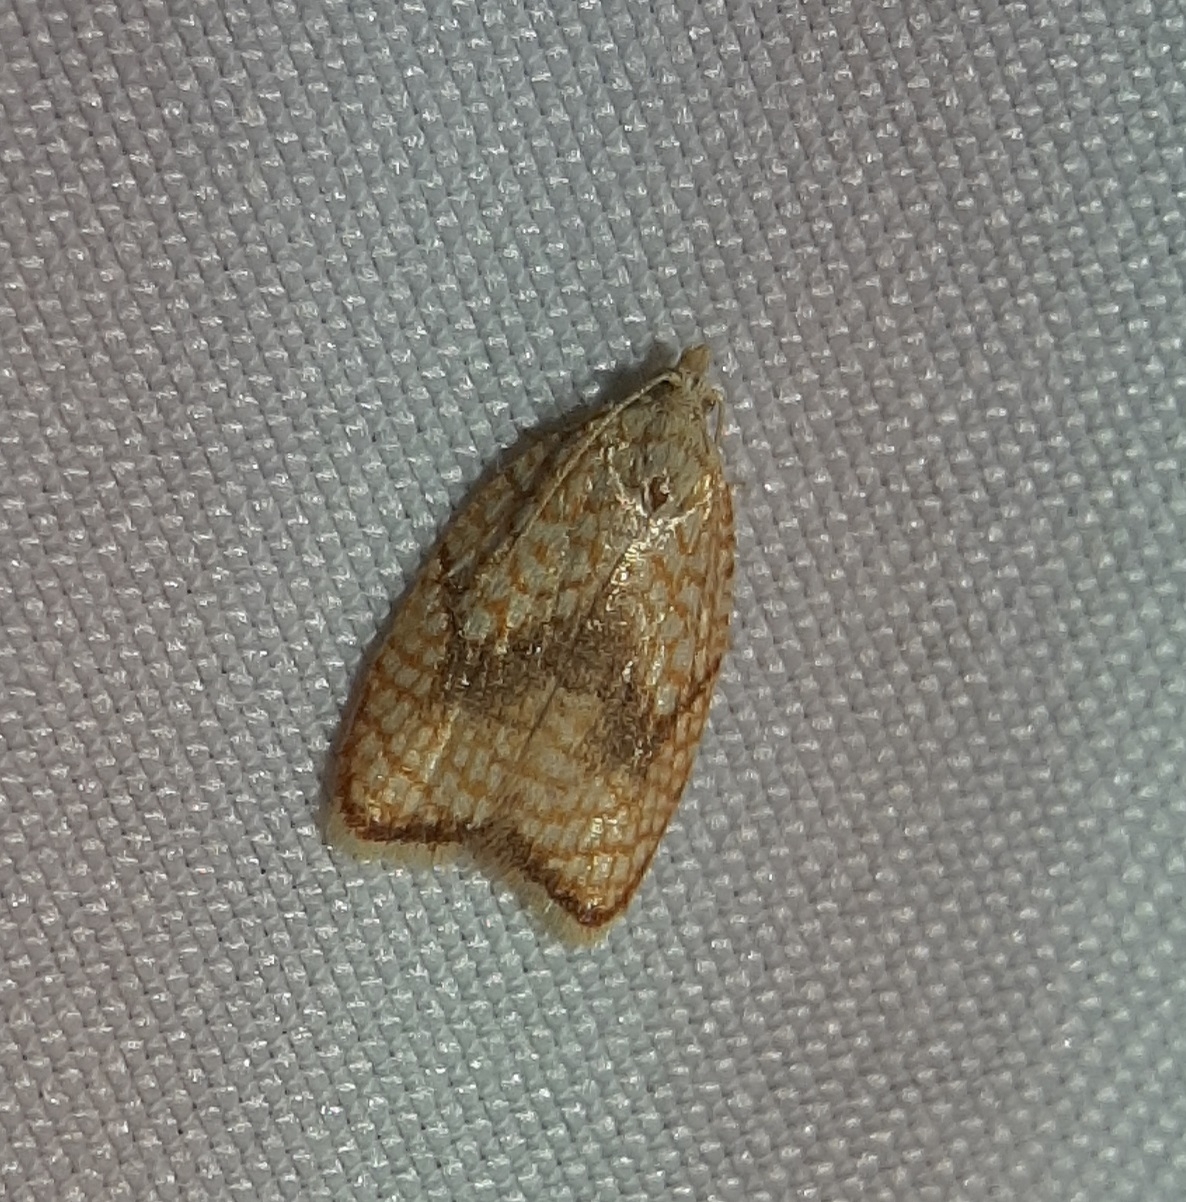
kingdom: Animalia
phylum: Arthropoda
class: Insecta
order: Lepidoptera
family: Tortricidae
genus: Acleris
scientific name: Acleris forsskaleana
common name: Maple button
